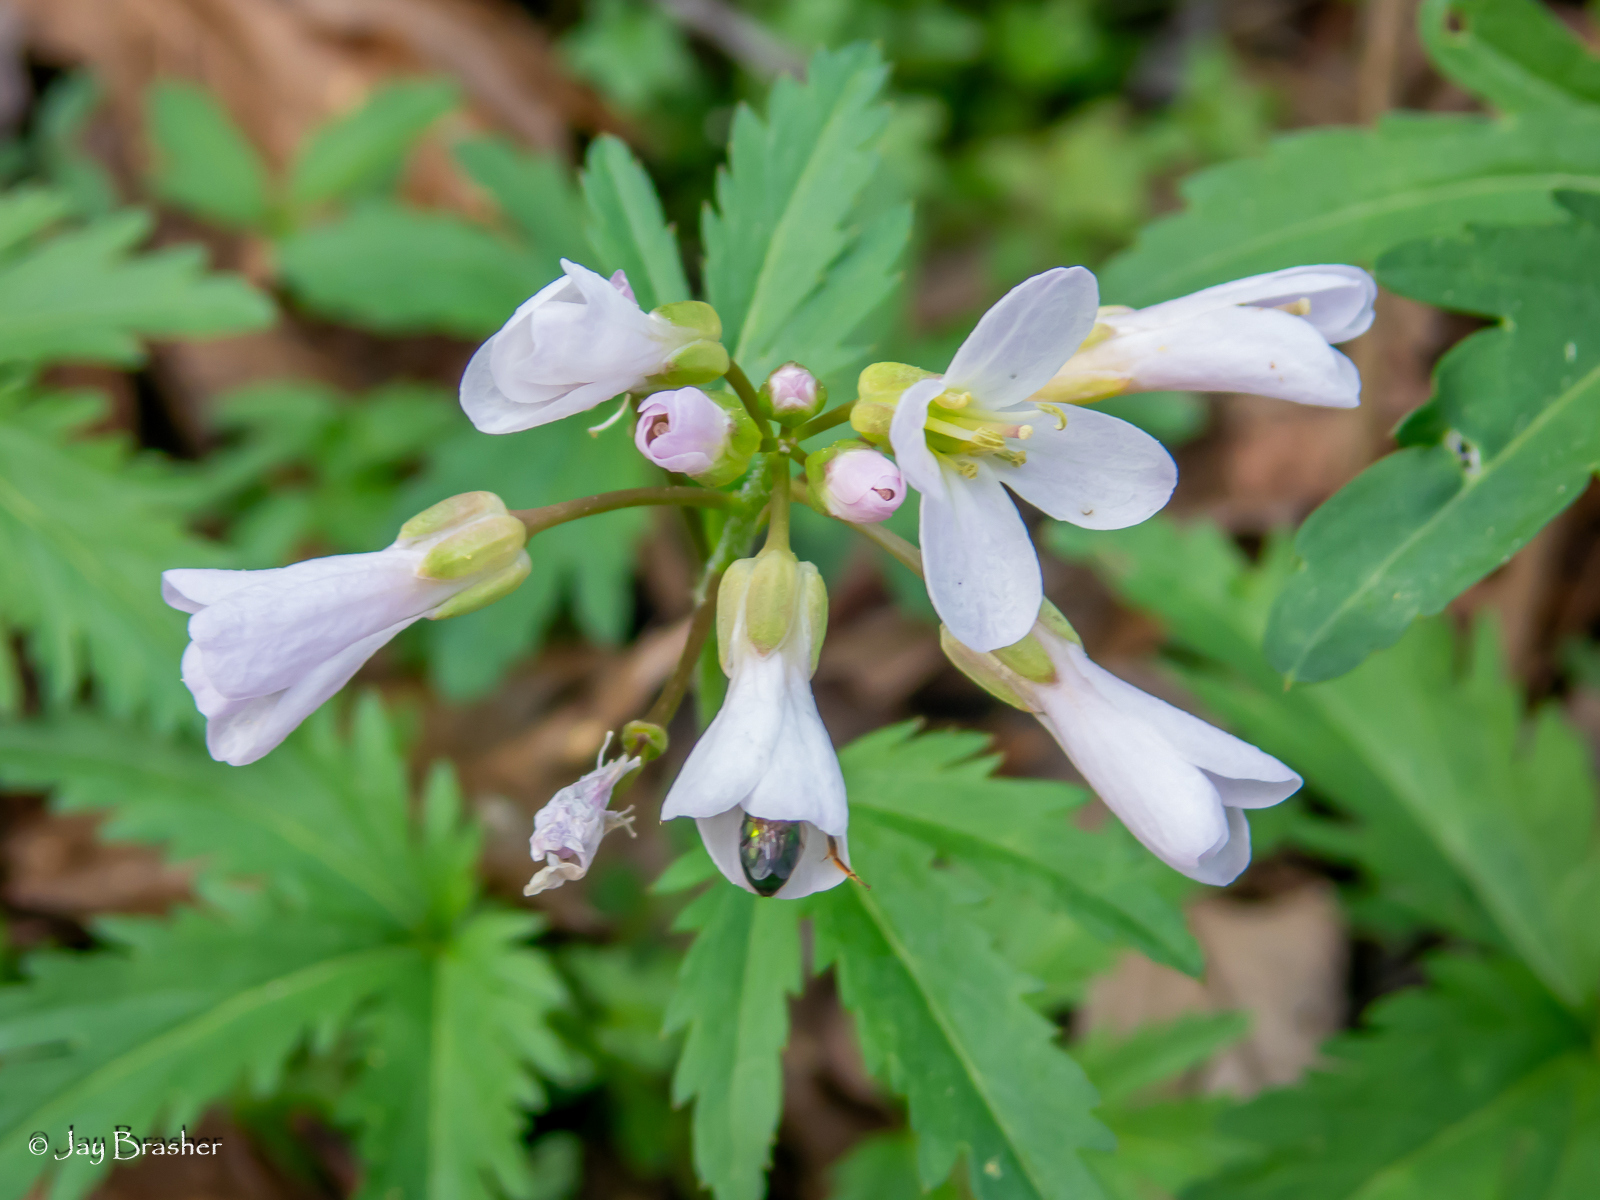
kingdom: Plantae
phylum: Tracheophyta
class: Magnoliopsida
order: Brassicales
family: Brassicaceae
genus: Cardamine
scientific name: Cardamine concatenata
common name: Cut-leaf toothcup
